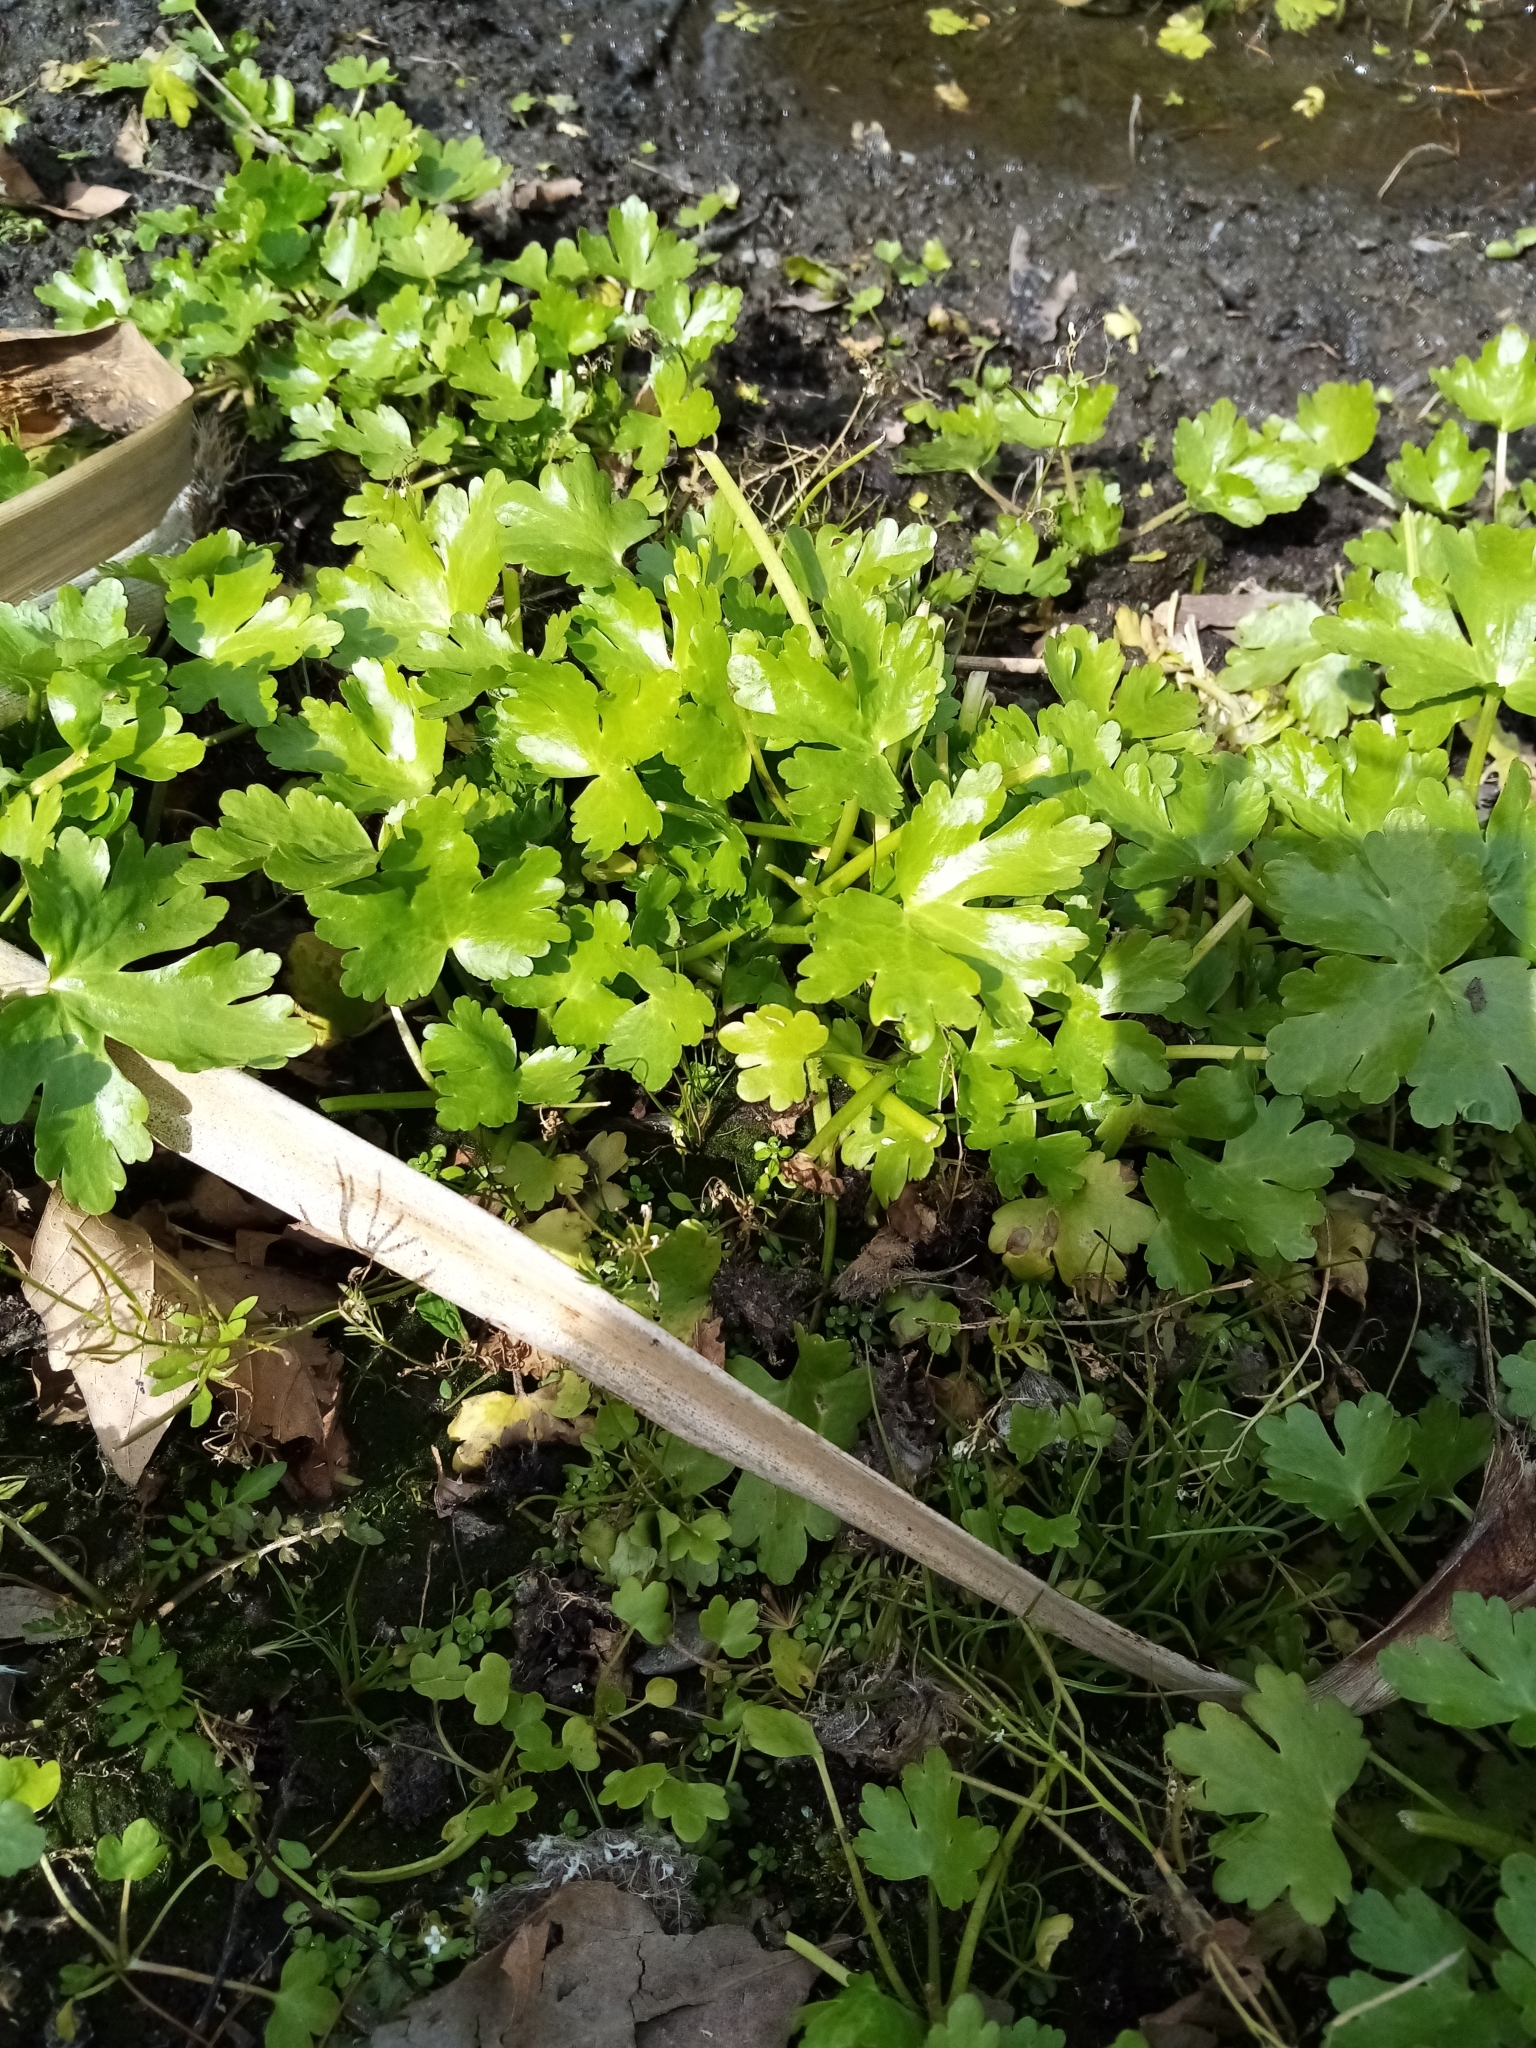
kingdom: Plantae
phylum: Tracheophyta
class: Magnoliopsida
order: Ranunculales
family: Ranunculaceae
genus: Ranunculus
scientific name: Ranunculus sceleratus
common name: Celery-leaved buttercup
